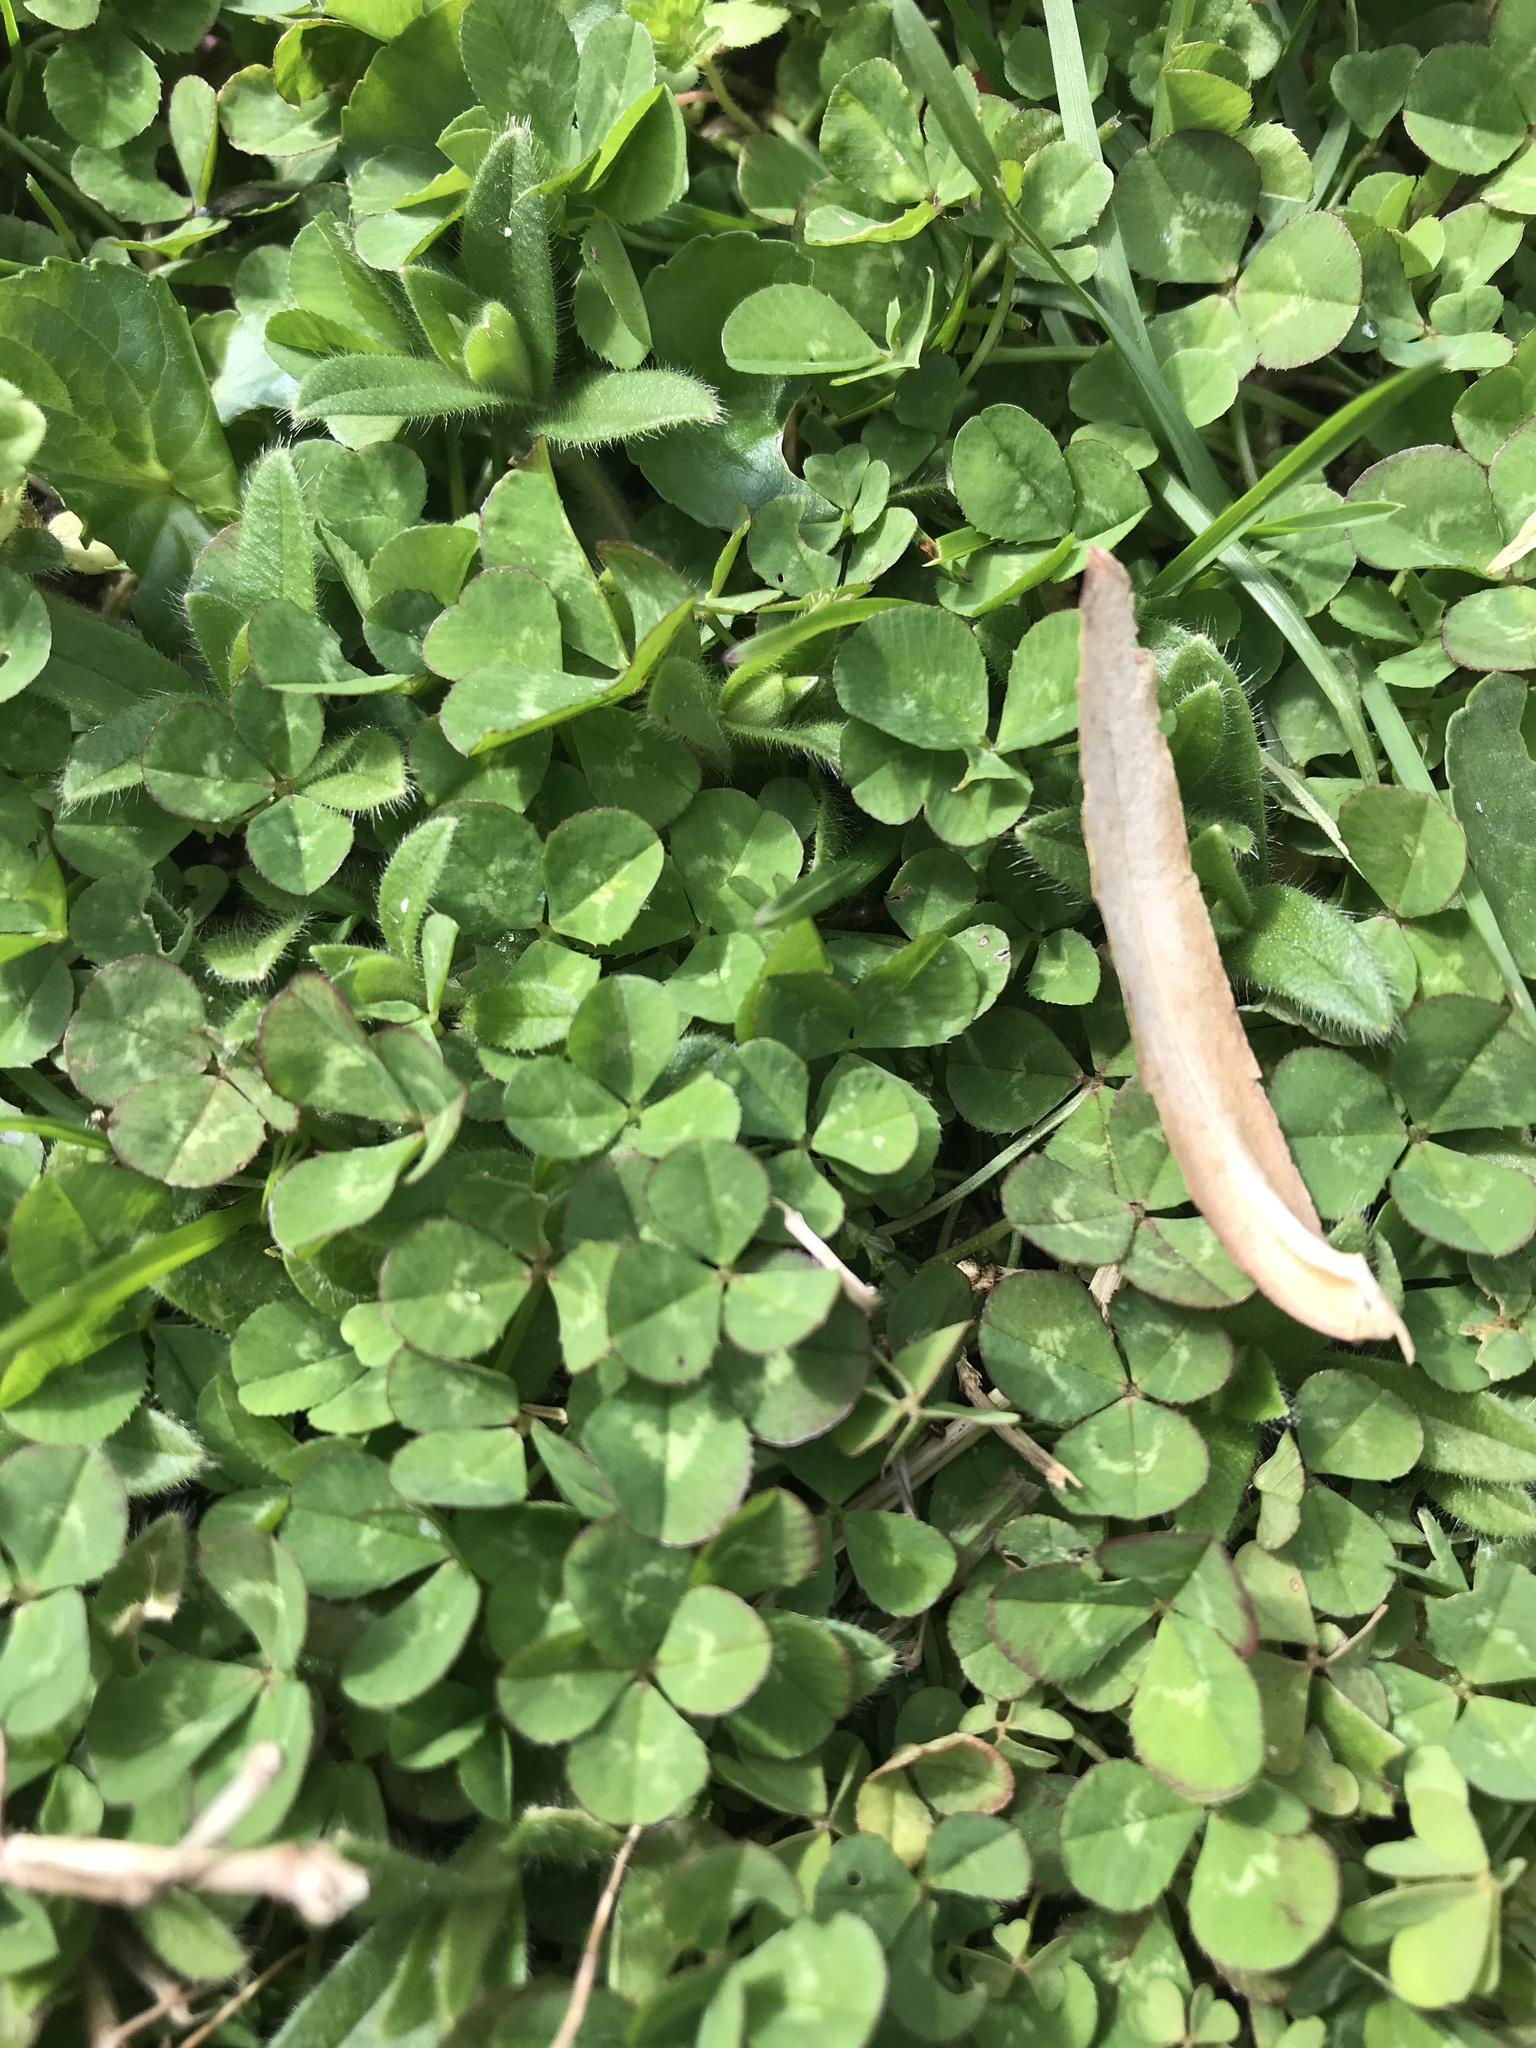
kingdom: Plantae
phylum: Tracheophyta
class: Magnoliopsida
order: Fabales
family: Fabaceae
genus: Trifolium
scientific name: Trifolium repens
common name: White clover
